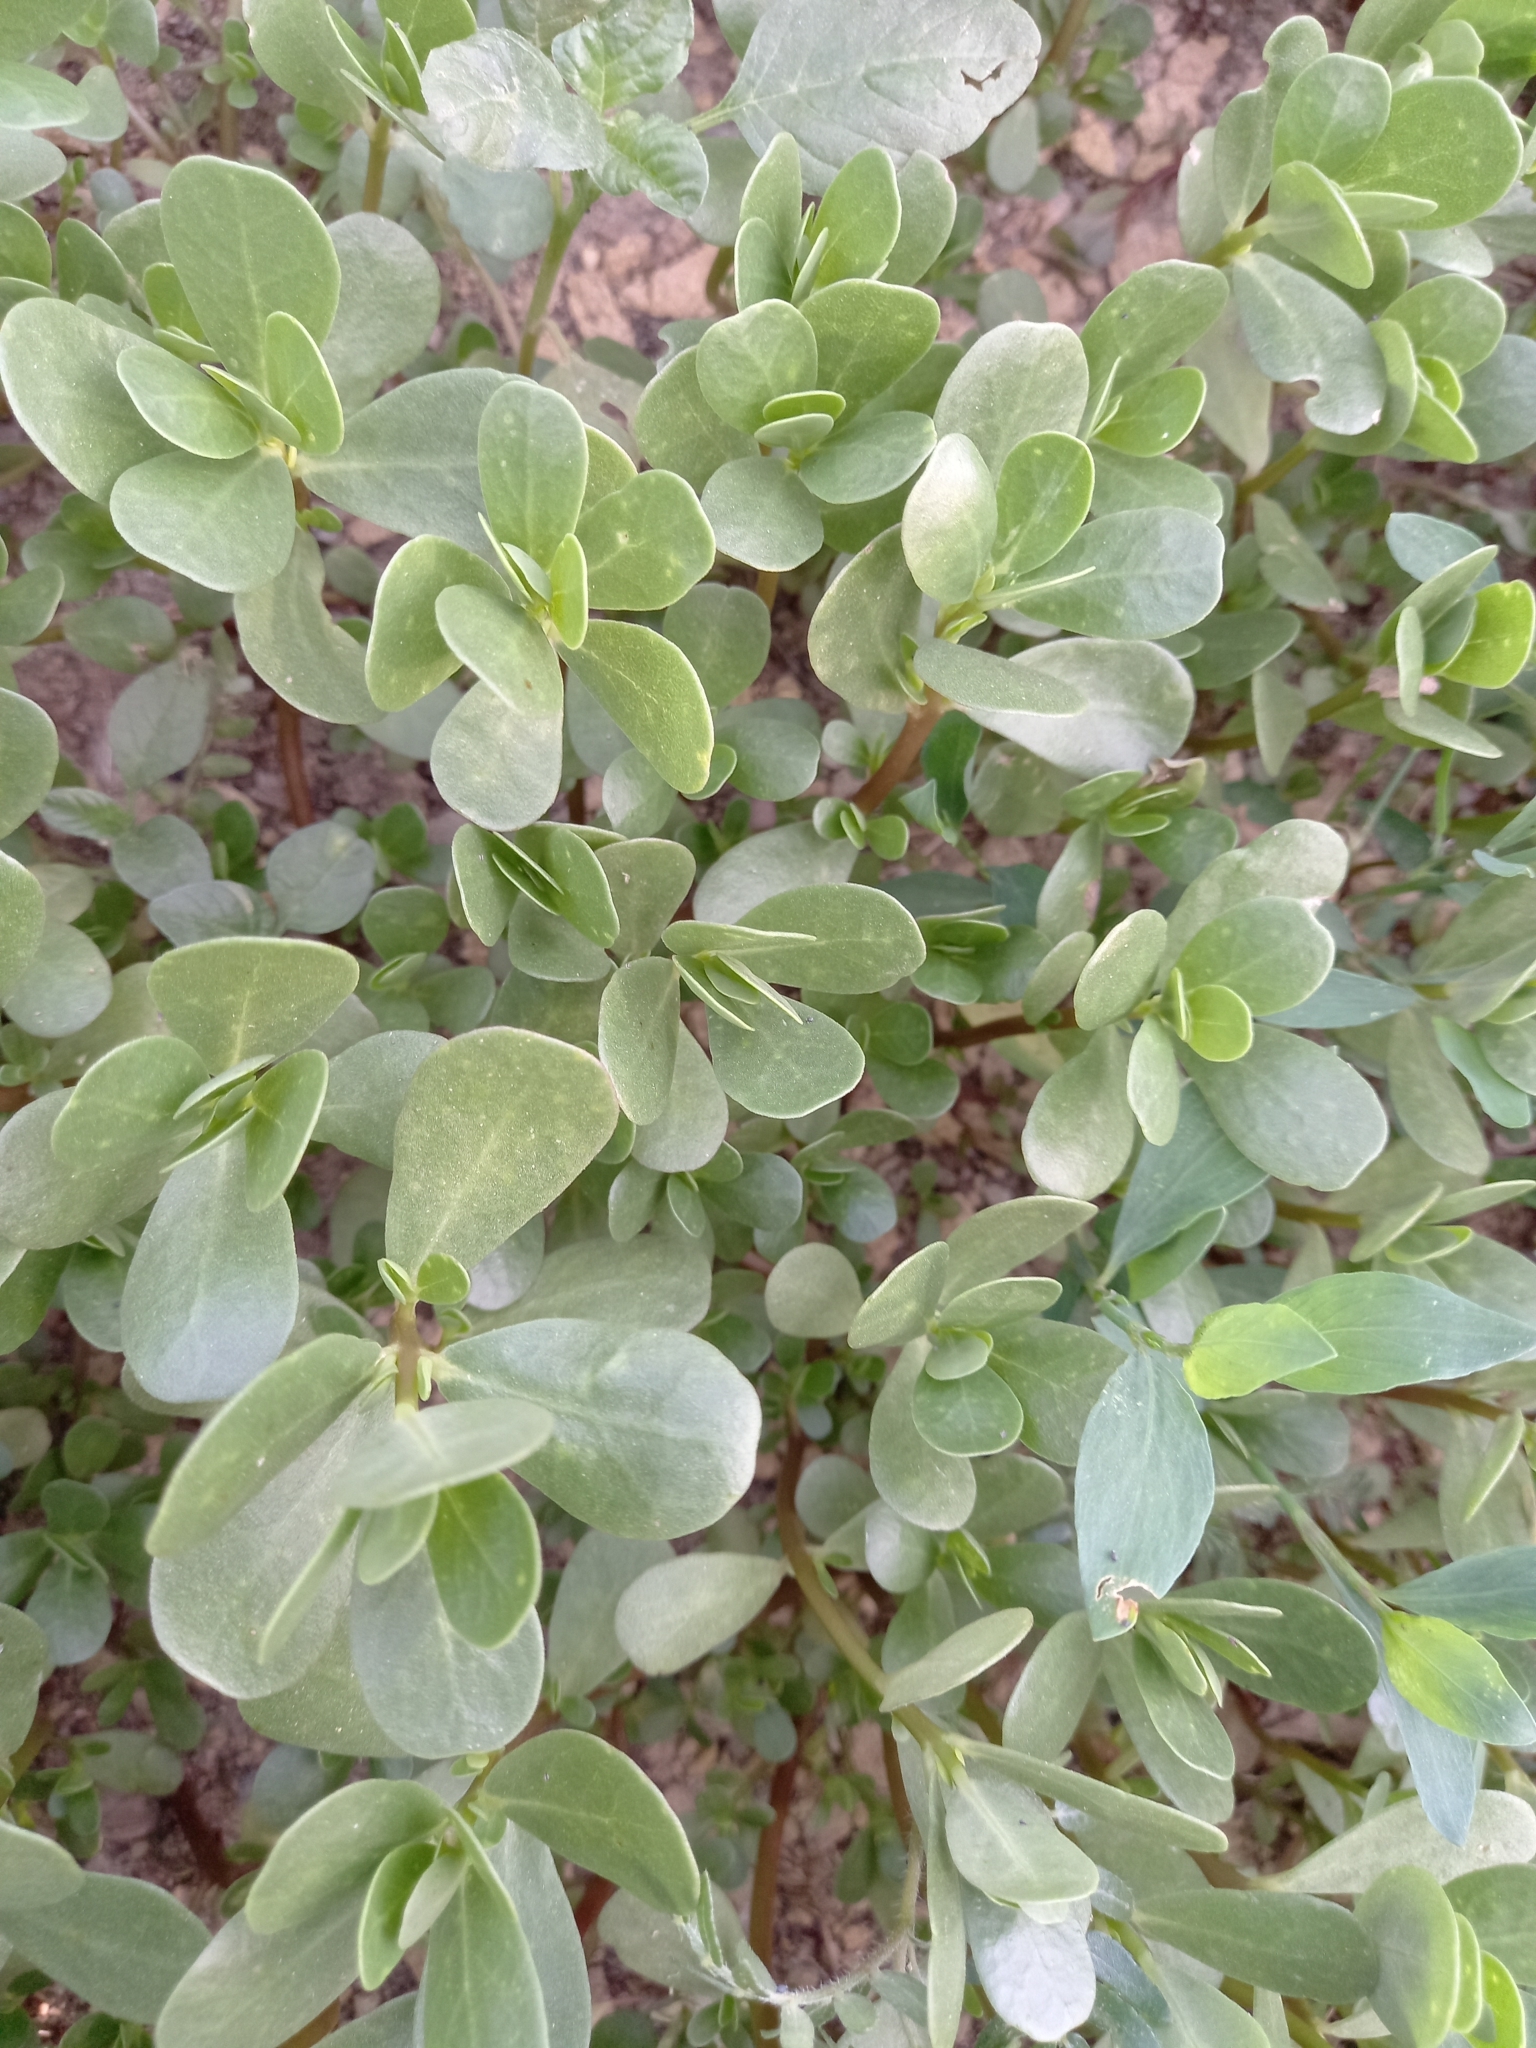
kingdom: Plantae
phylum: Tracheophyta
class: Magnoliopsida
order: Caryophyllales
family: Portulacaceae
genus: Portulaca
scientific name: Portulaca oleracea
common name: Common purslane
